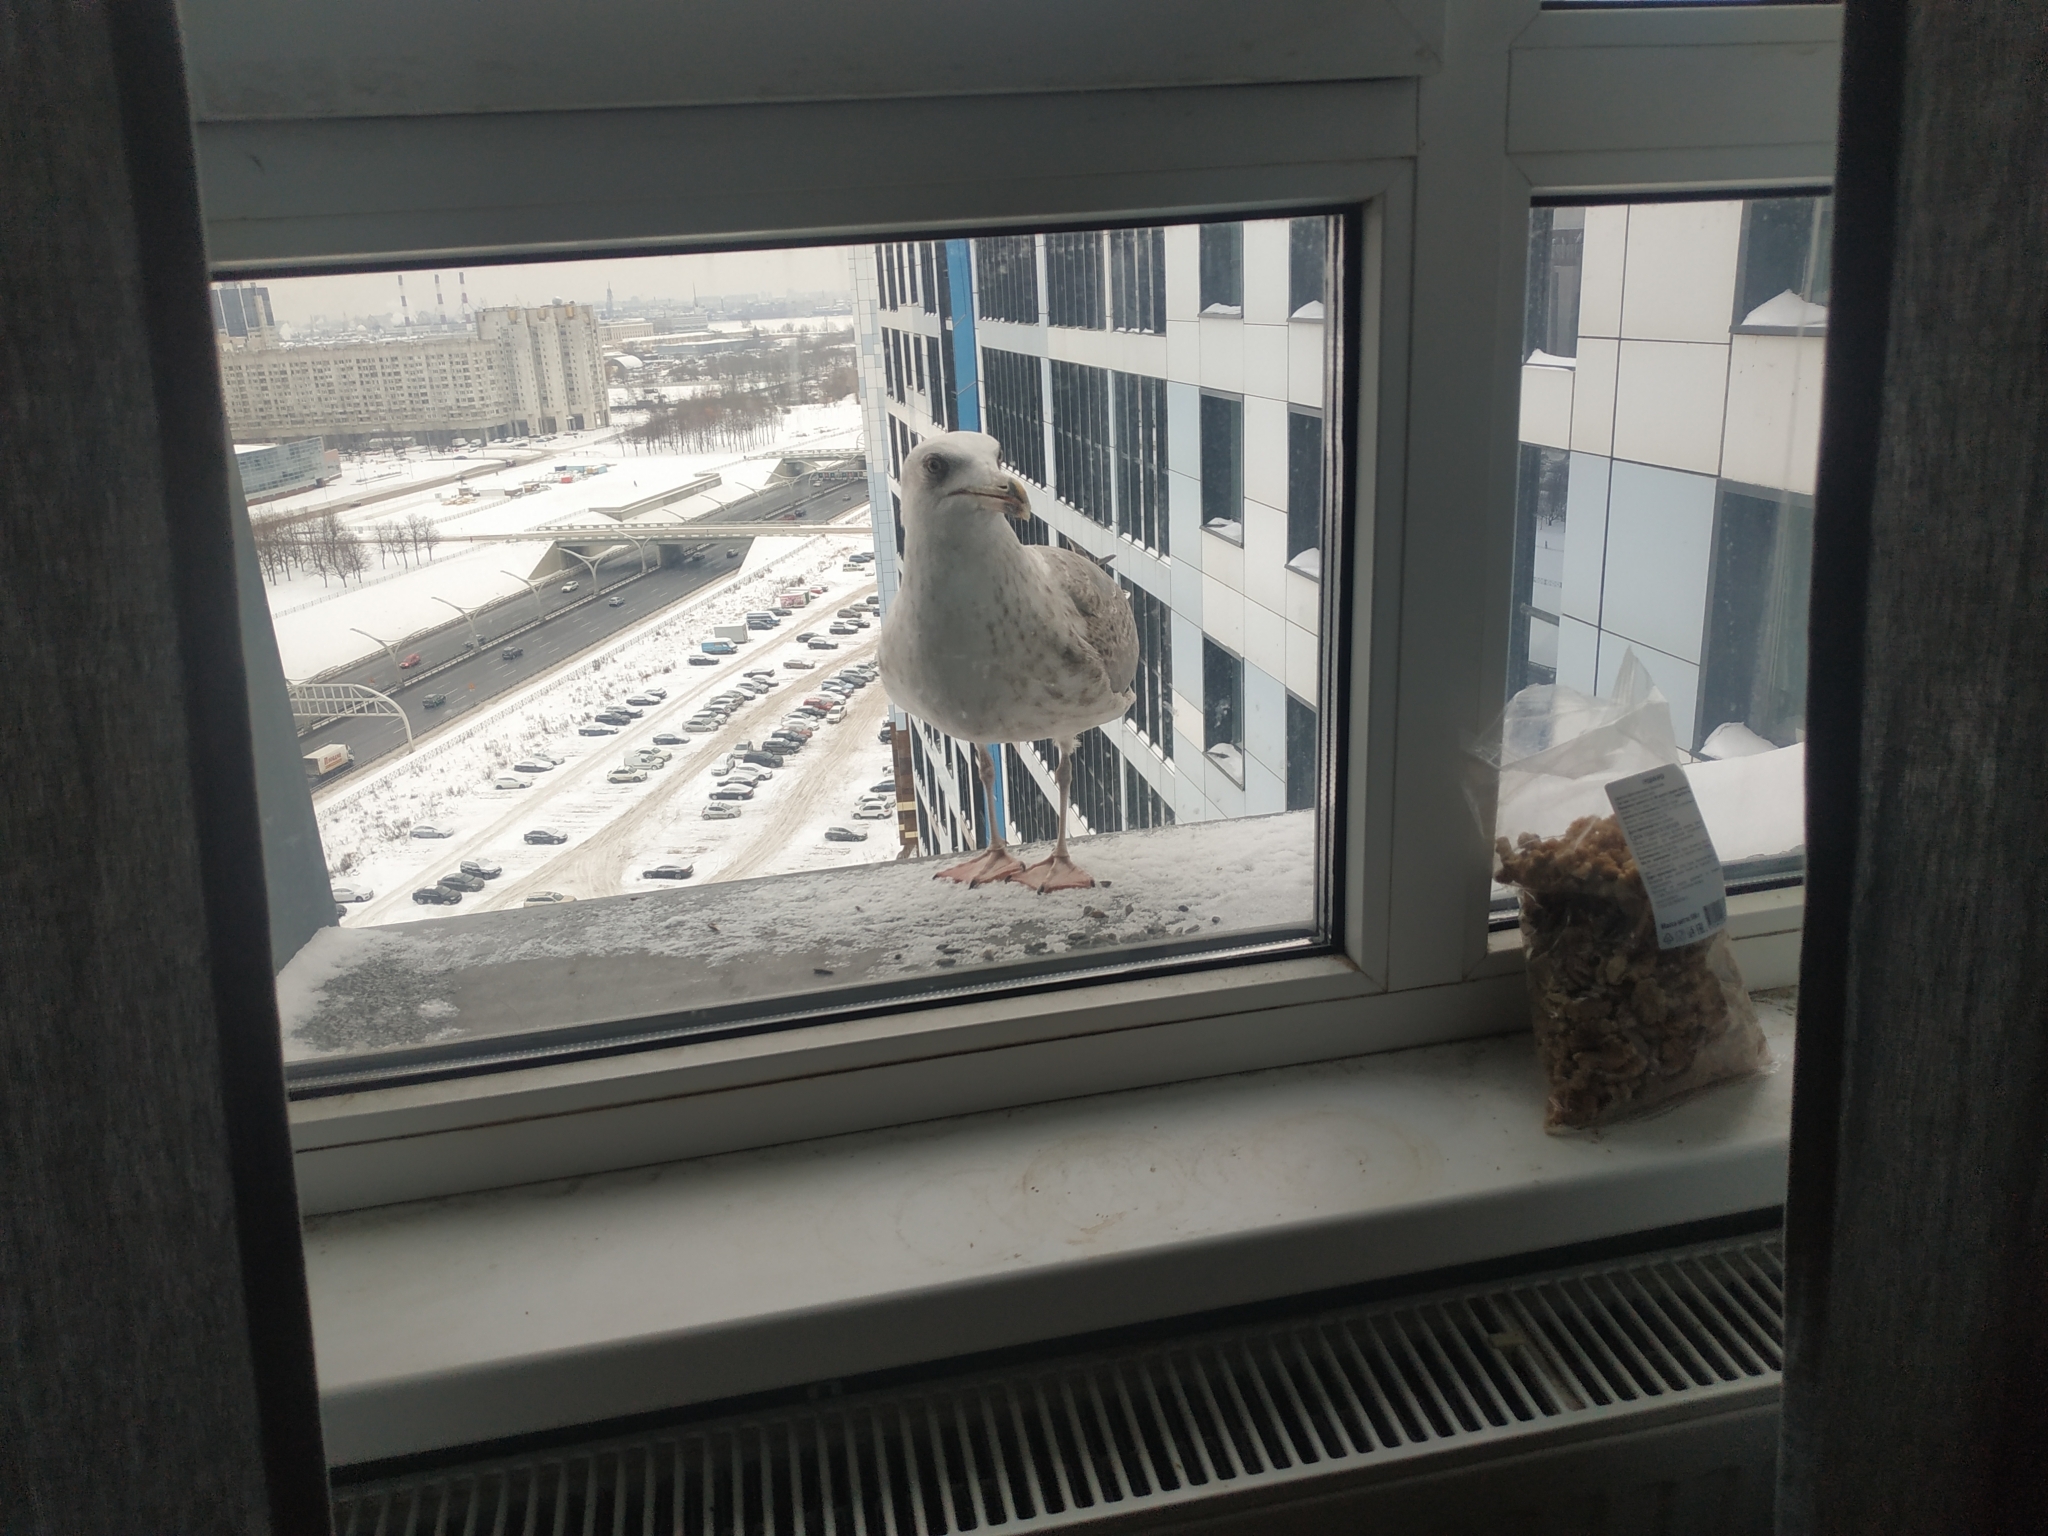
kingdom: Animalia
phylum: Chordata
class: Aves
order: Charadriiformes
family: Laridae
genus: Larus
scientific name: Larus argentatus
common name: Herring gull
